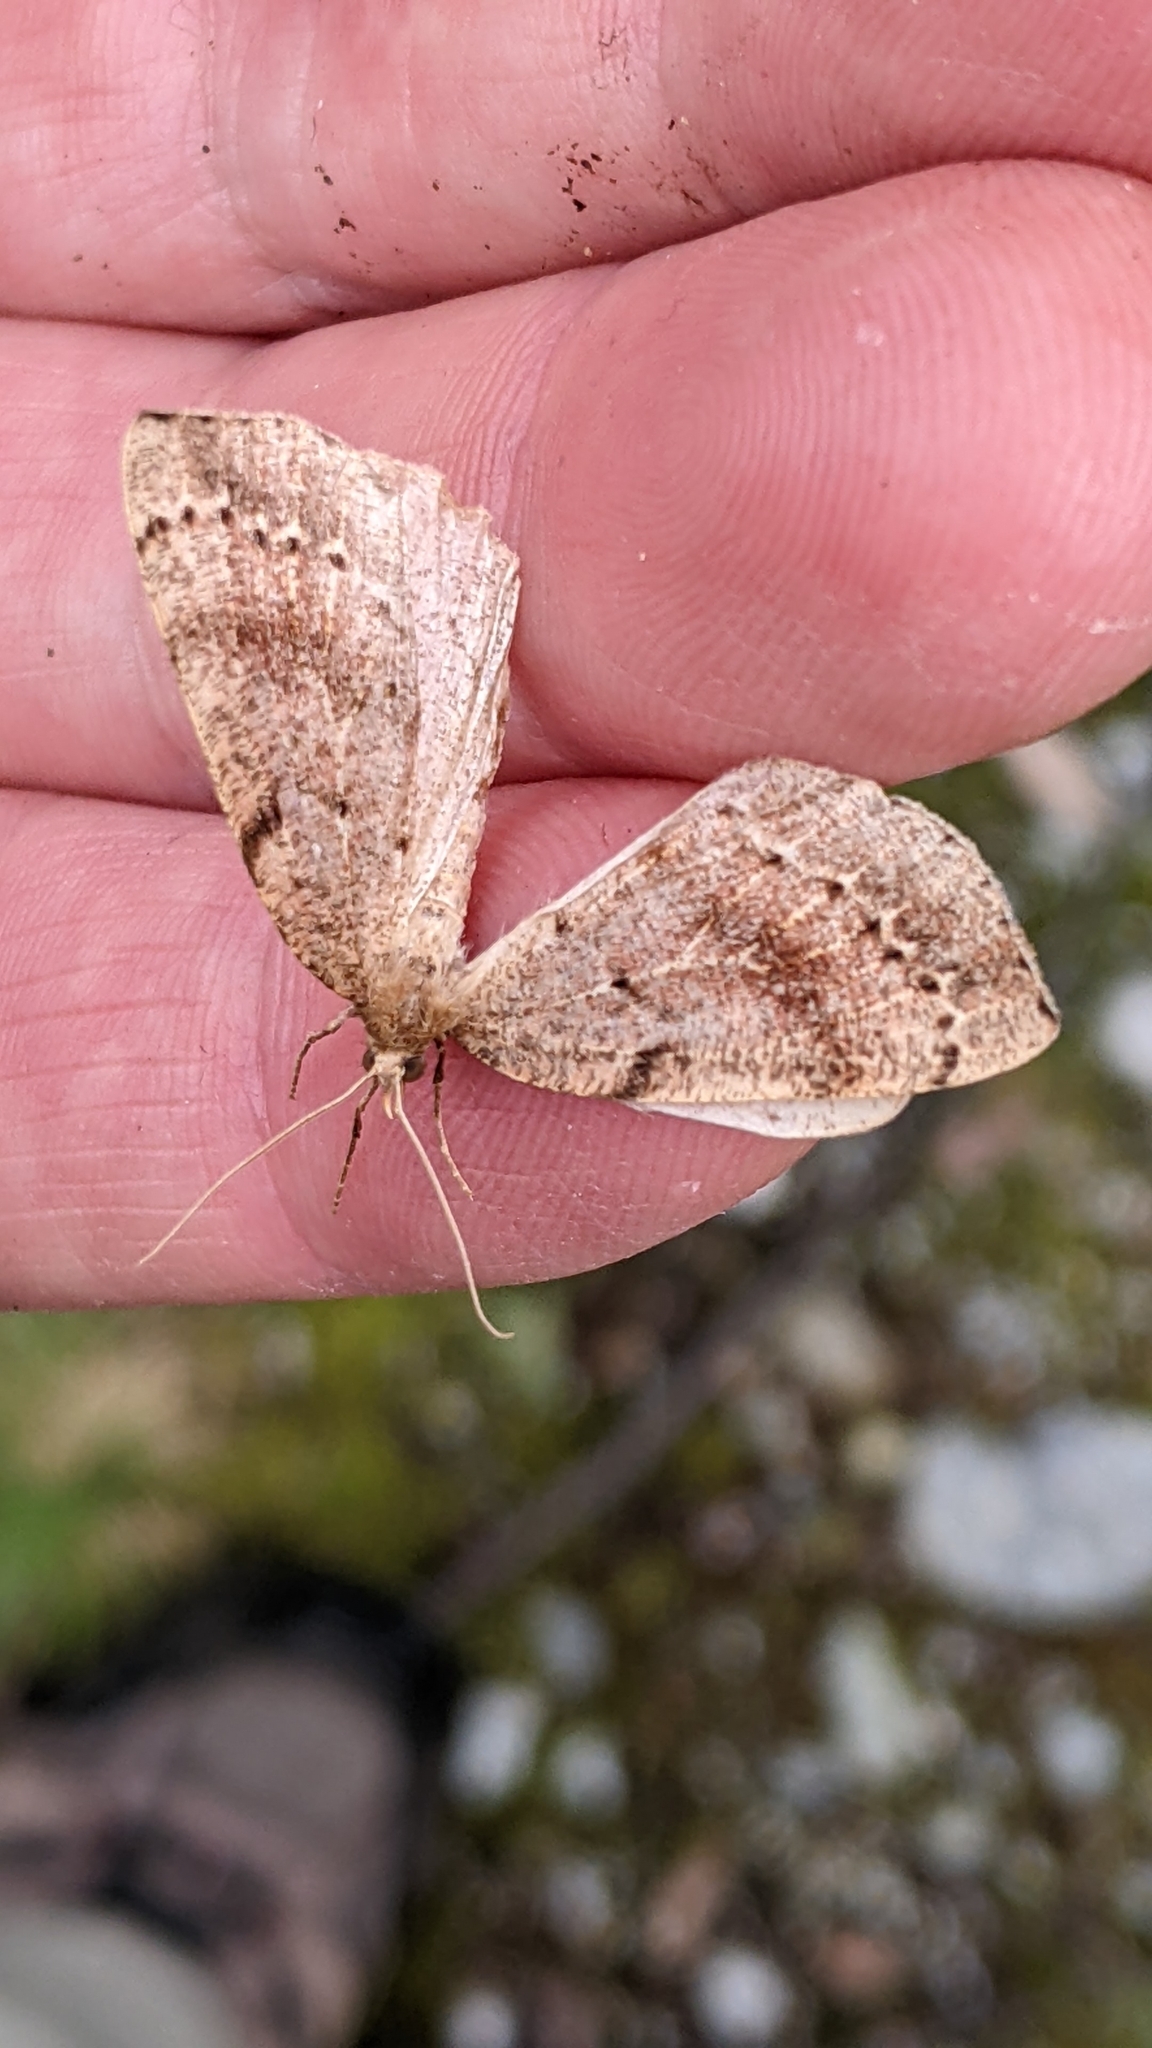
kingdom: Animalia
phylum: Arthropoda
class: Insecta
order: Lepidoptera
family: Geometridae
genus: Thallophaga
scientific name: Thallophaga hyperborea
